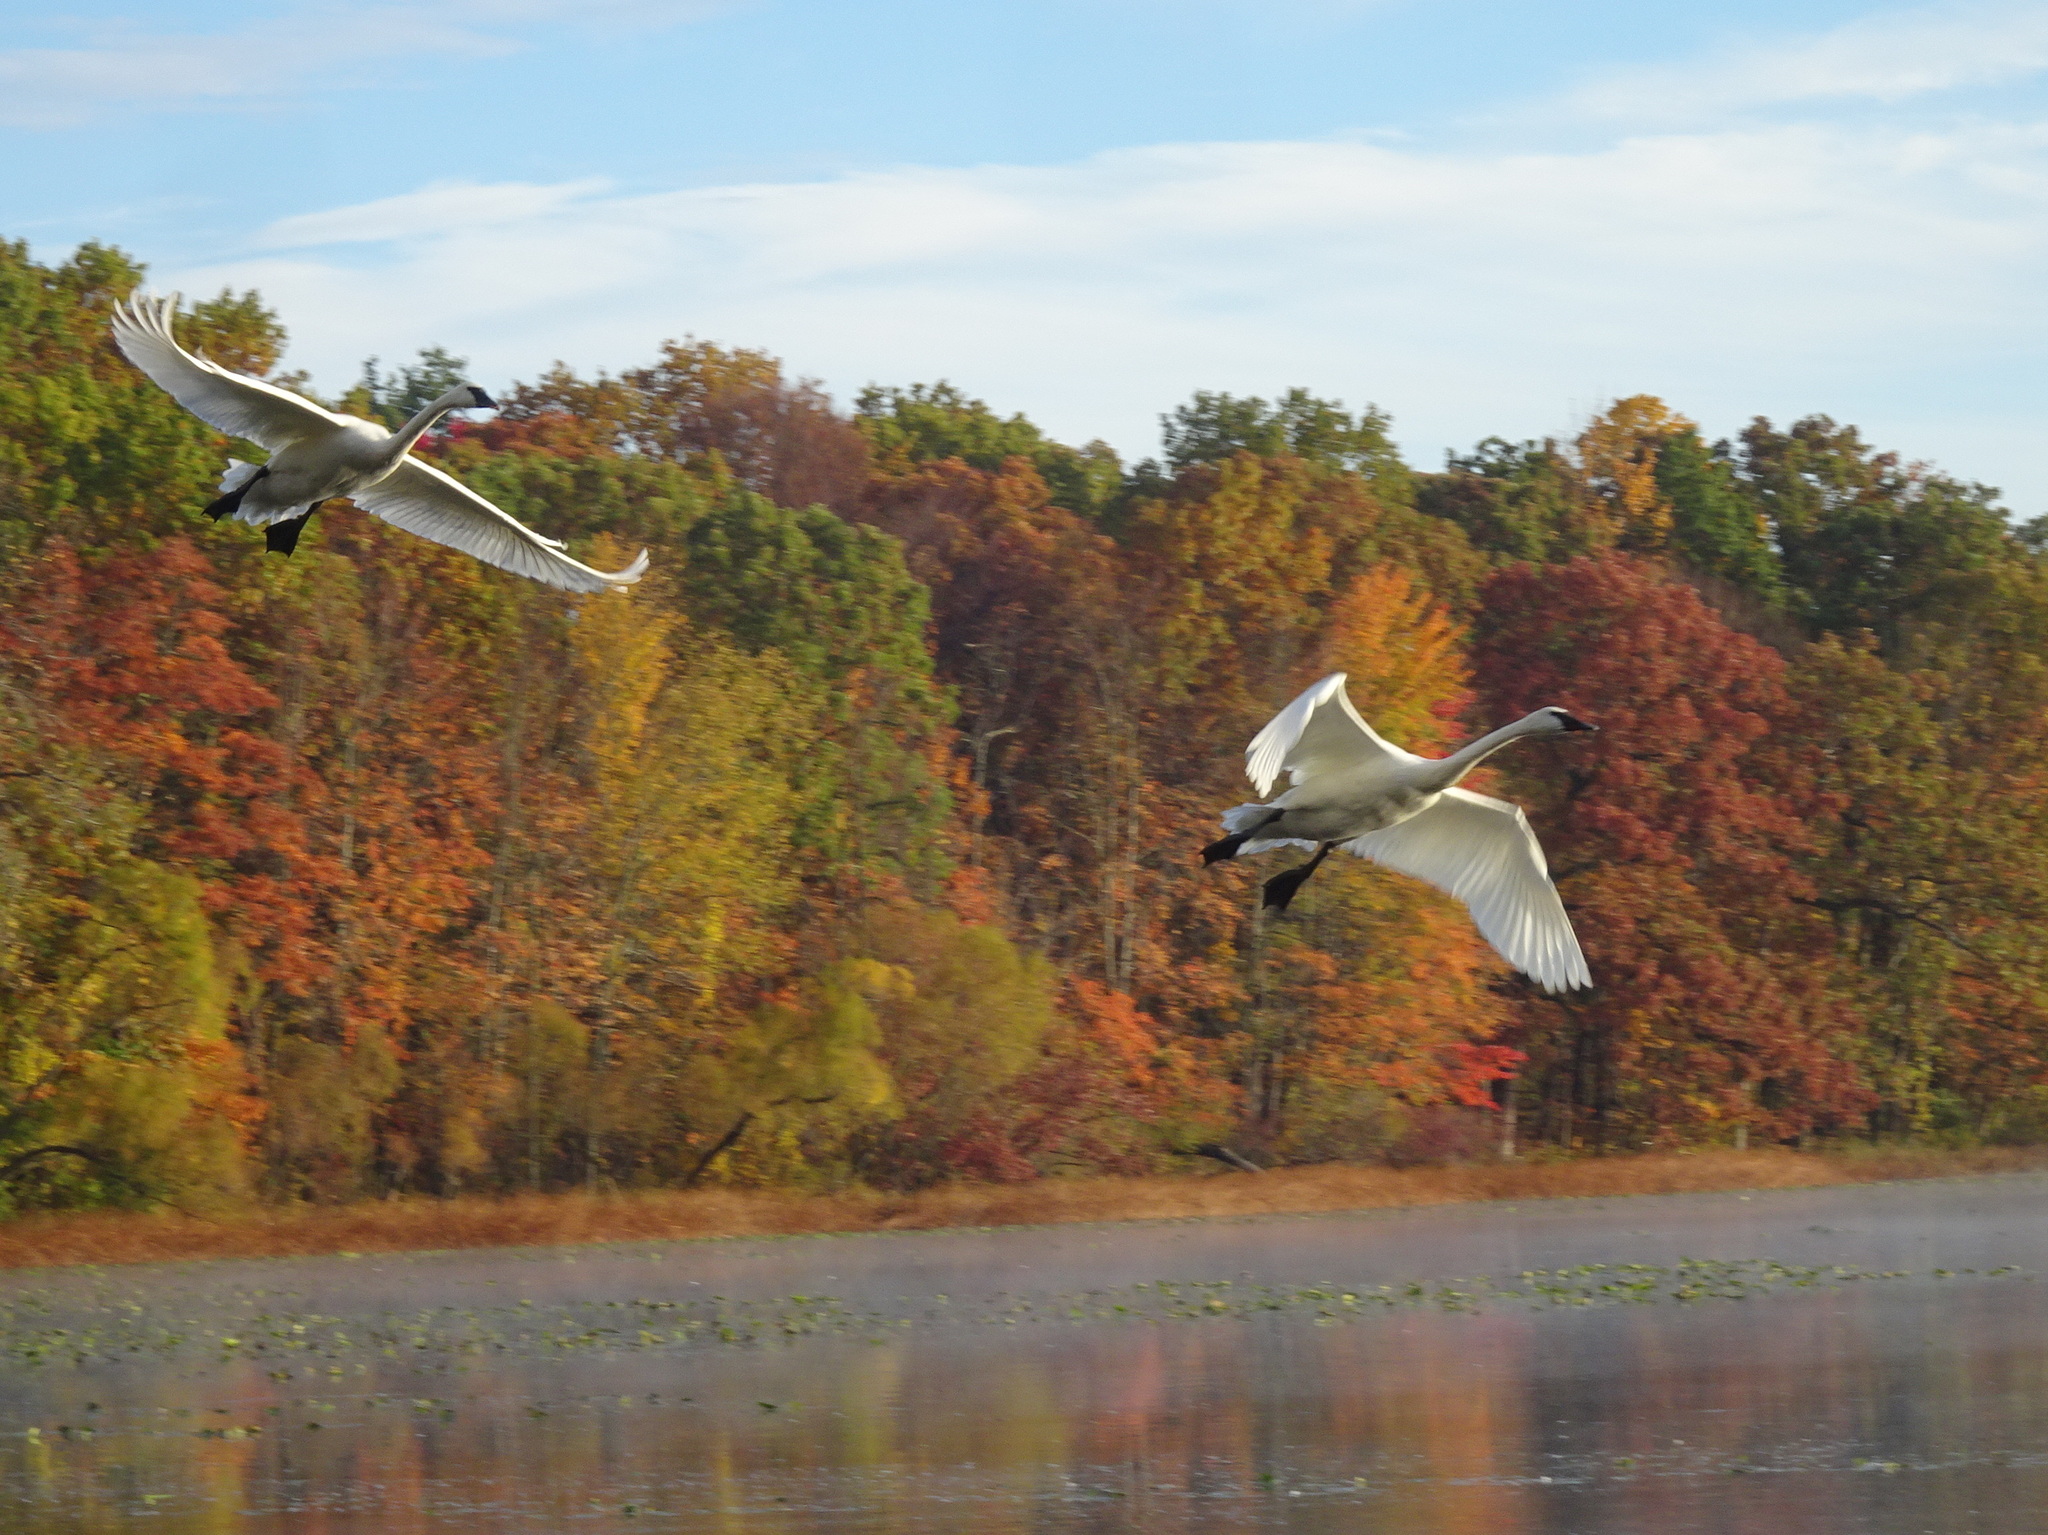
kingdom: Animalia
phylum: Chordata
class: Aves
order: Anseriformes
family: Anatidae
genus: Cygnus
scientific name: Cygnus buccinator
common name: Trumpeter swan
